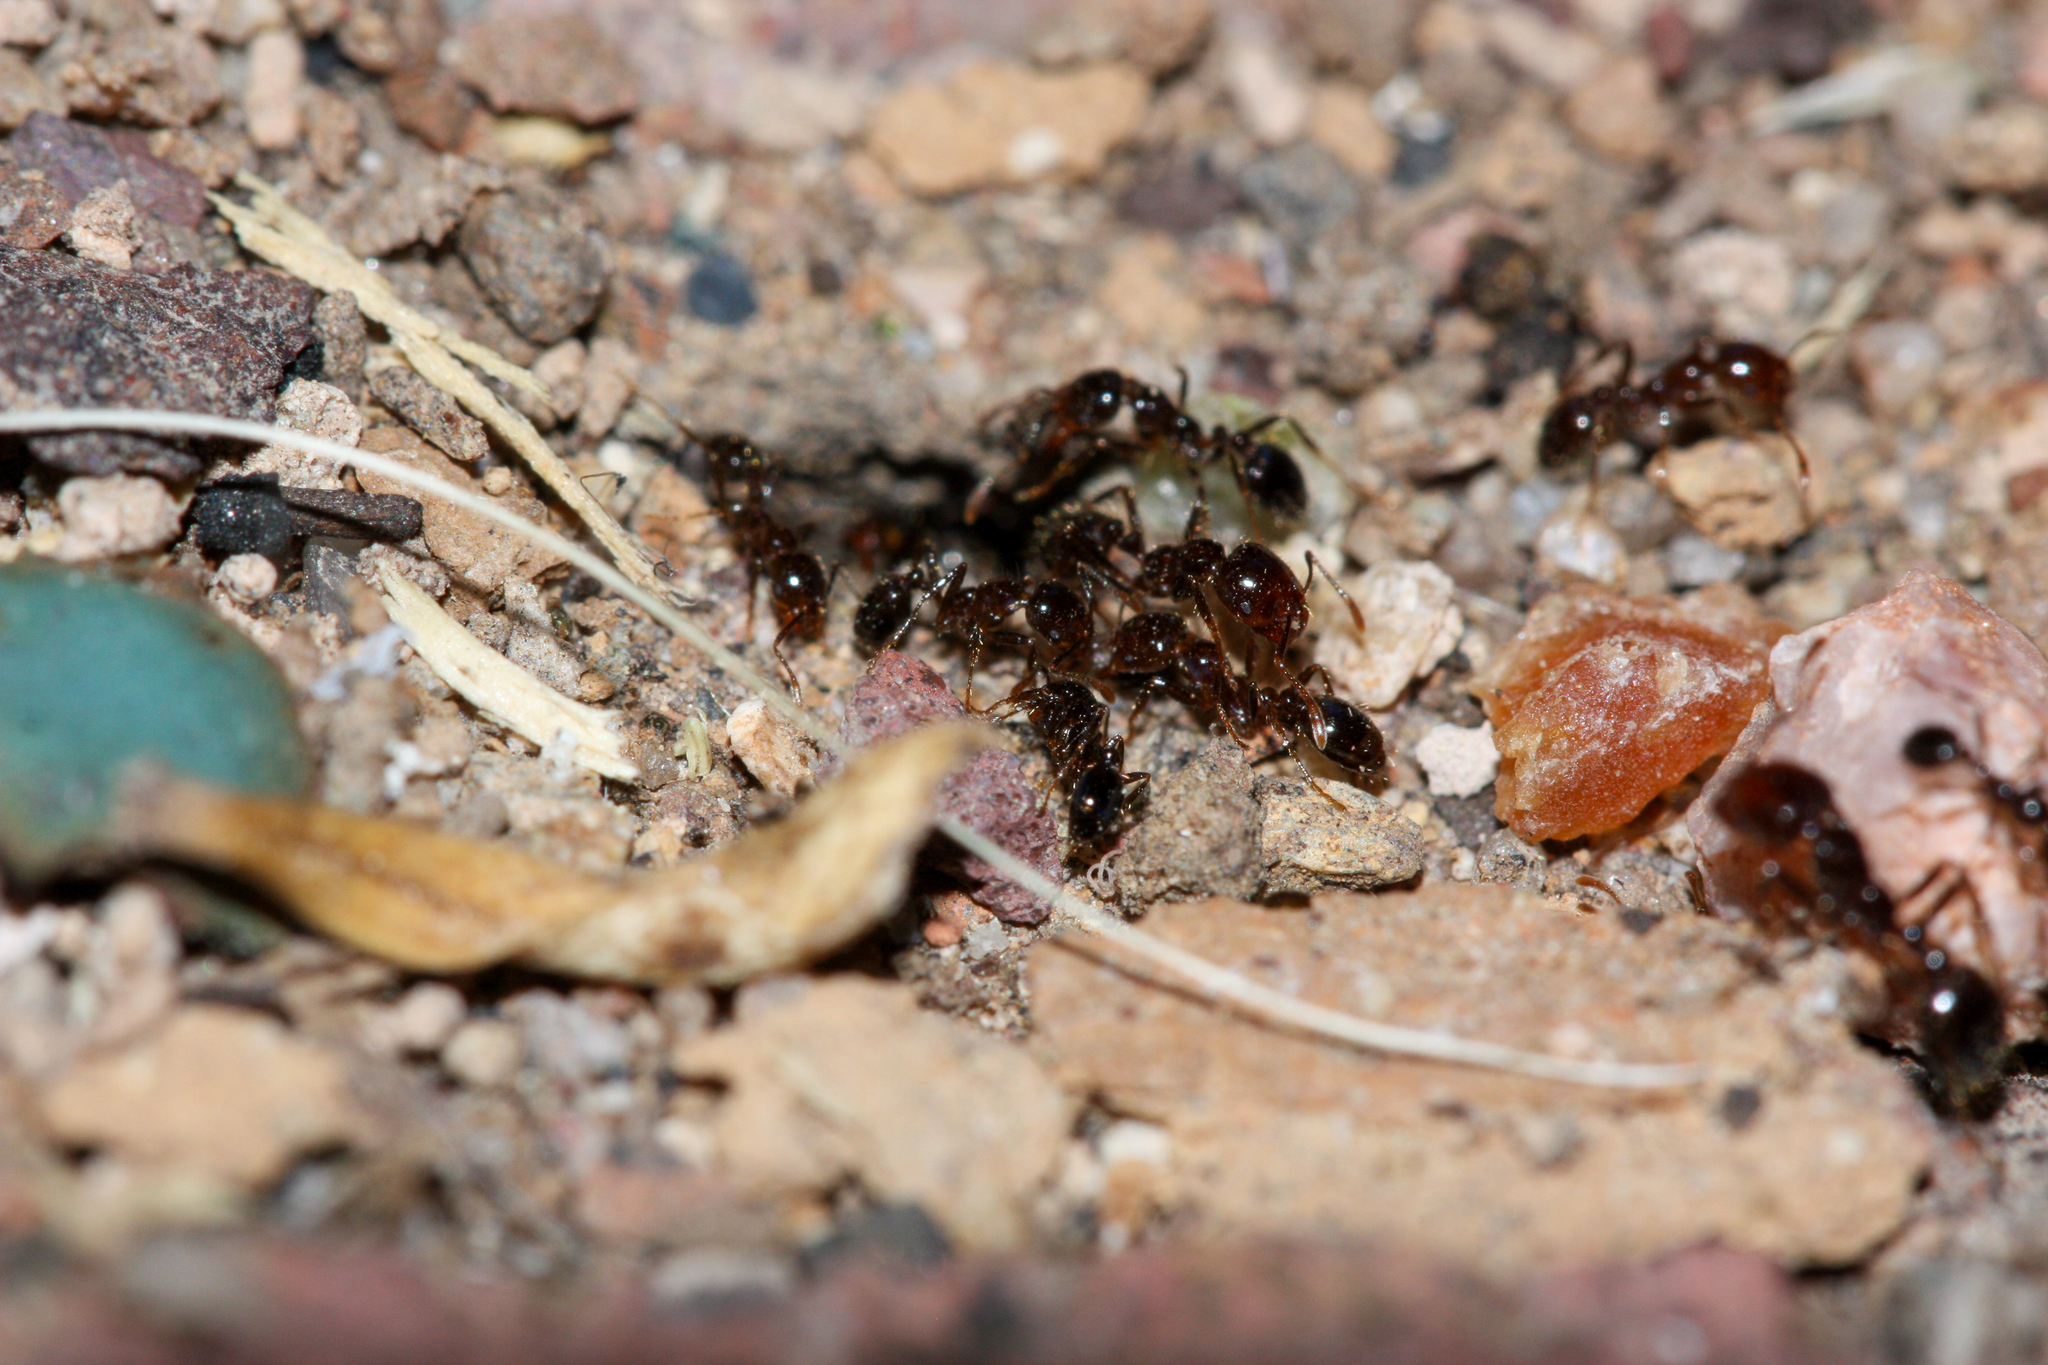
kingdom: Animalia
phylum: Arthropoda
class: Insecta
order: Hymenoptera
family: Formicidae
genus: Solenopsis
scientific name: Solenopsis xyloni
